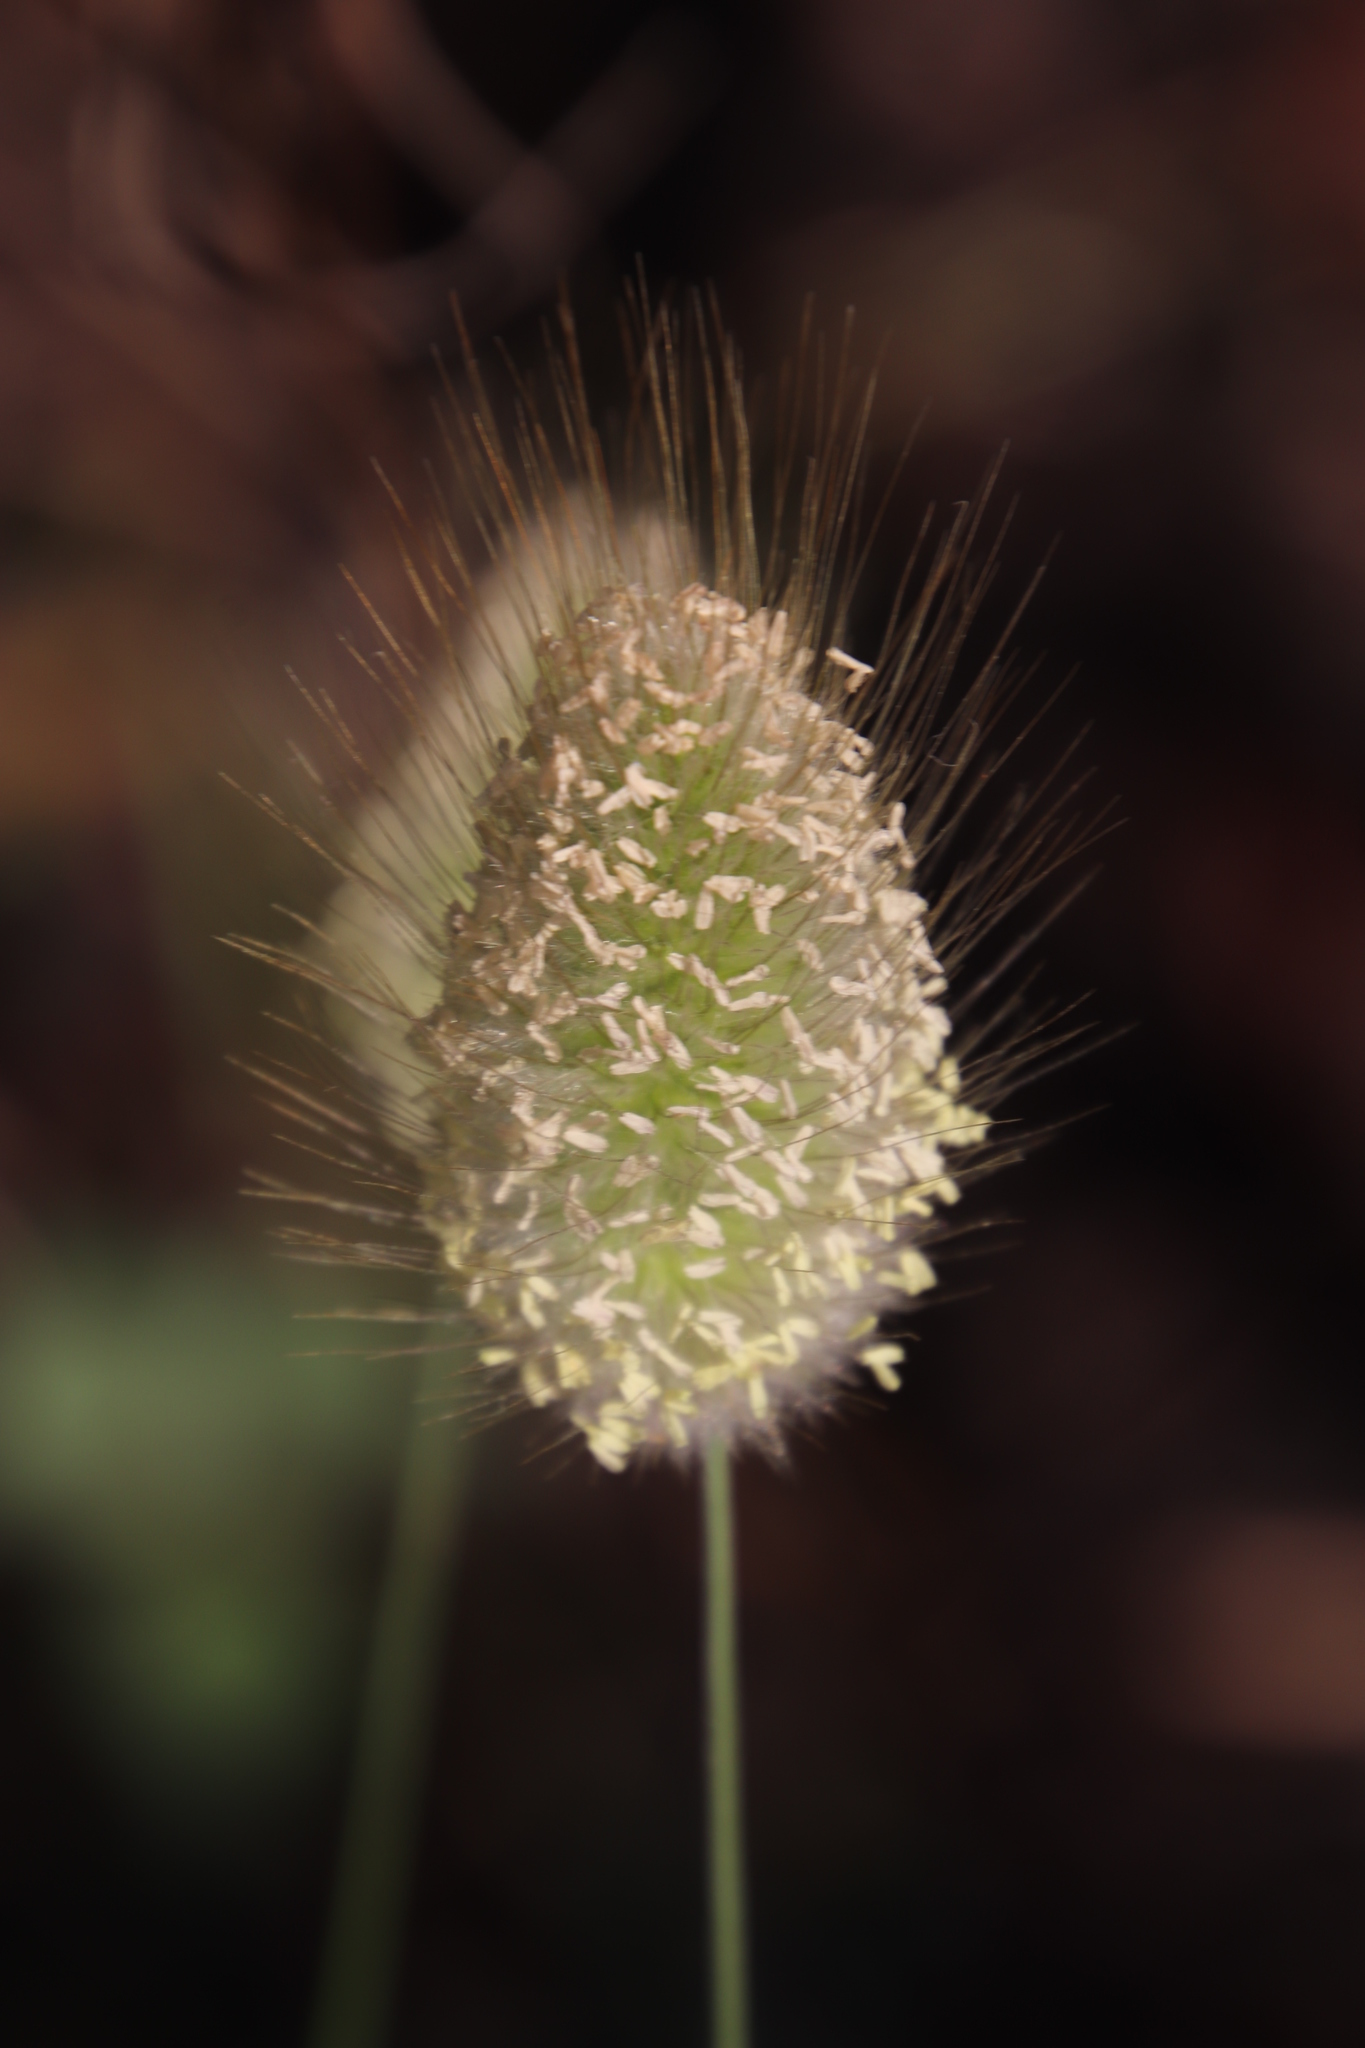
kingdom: Plantae
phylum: Tracheophyta
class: Liliopsida
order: Poales
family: Poaceae
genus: Lagurus
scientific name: Lagurus ovatus
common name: Hare's-tail
